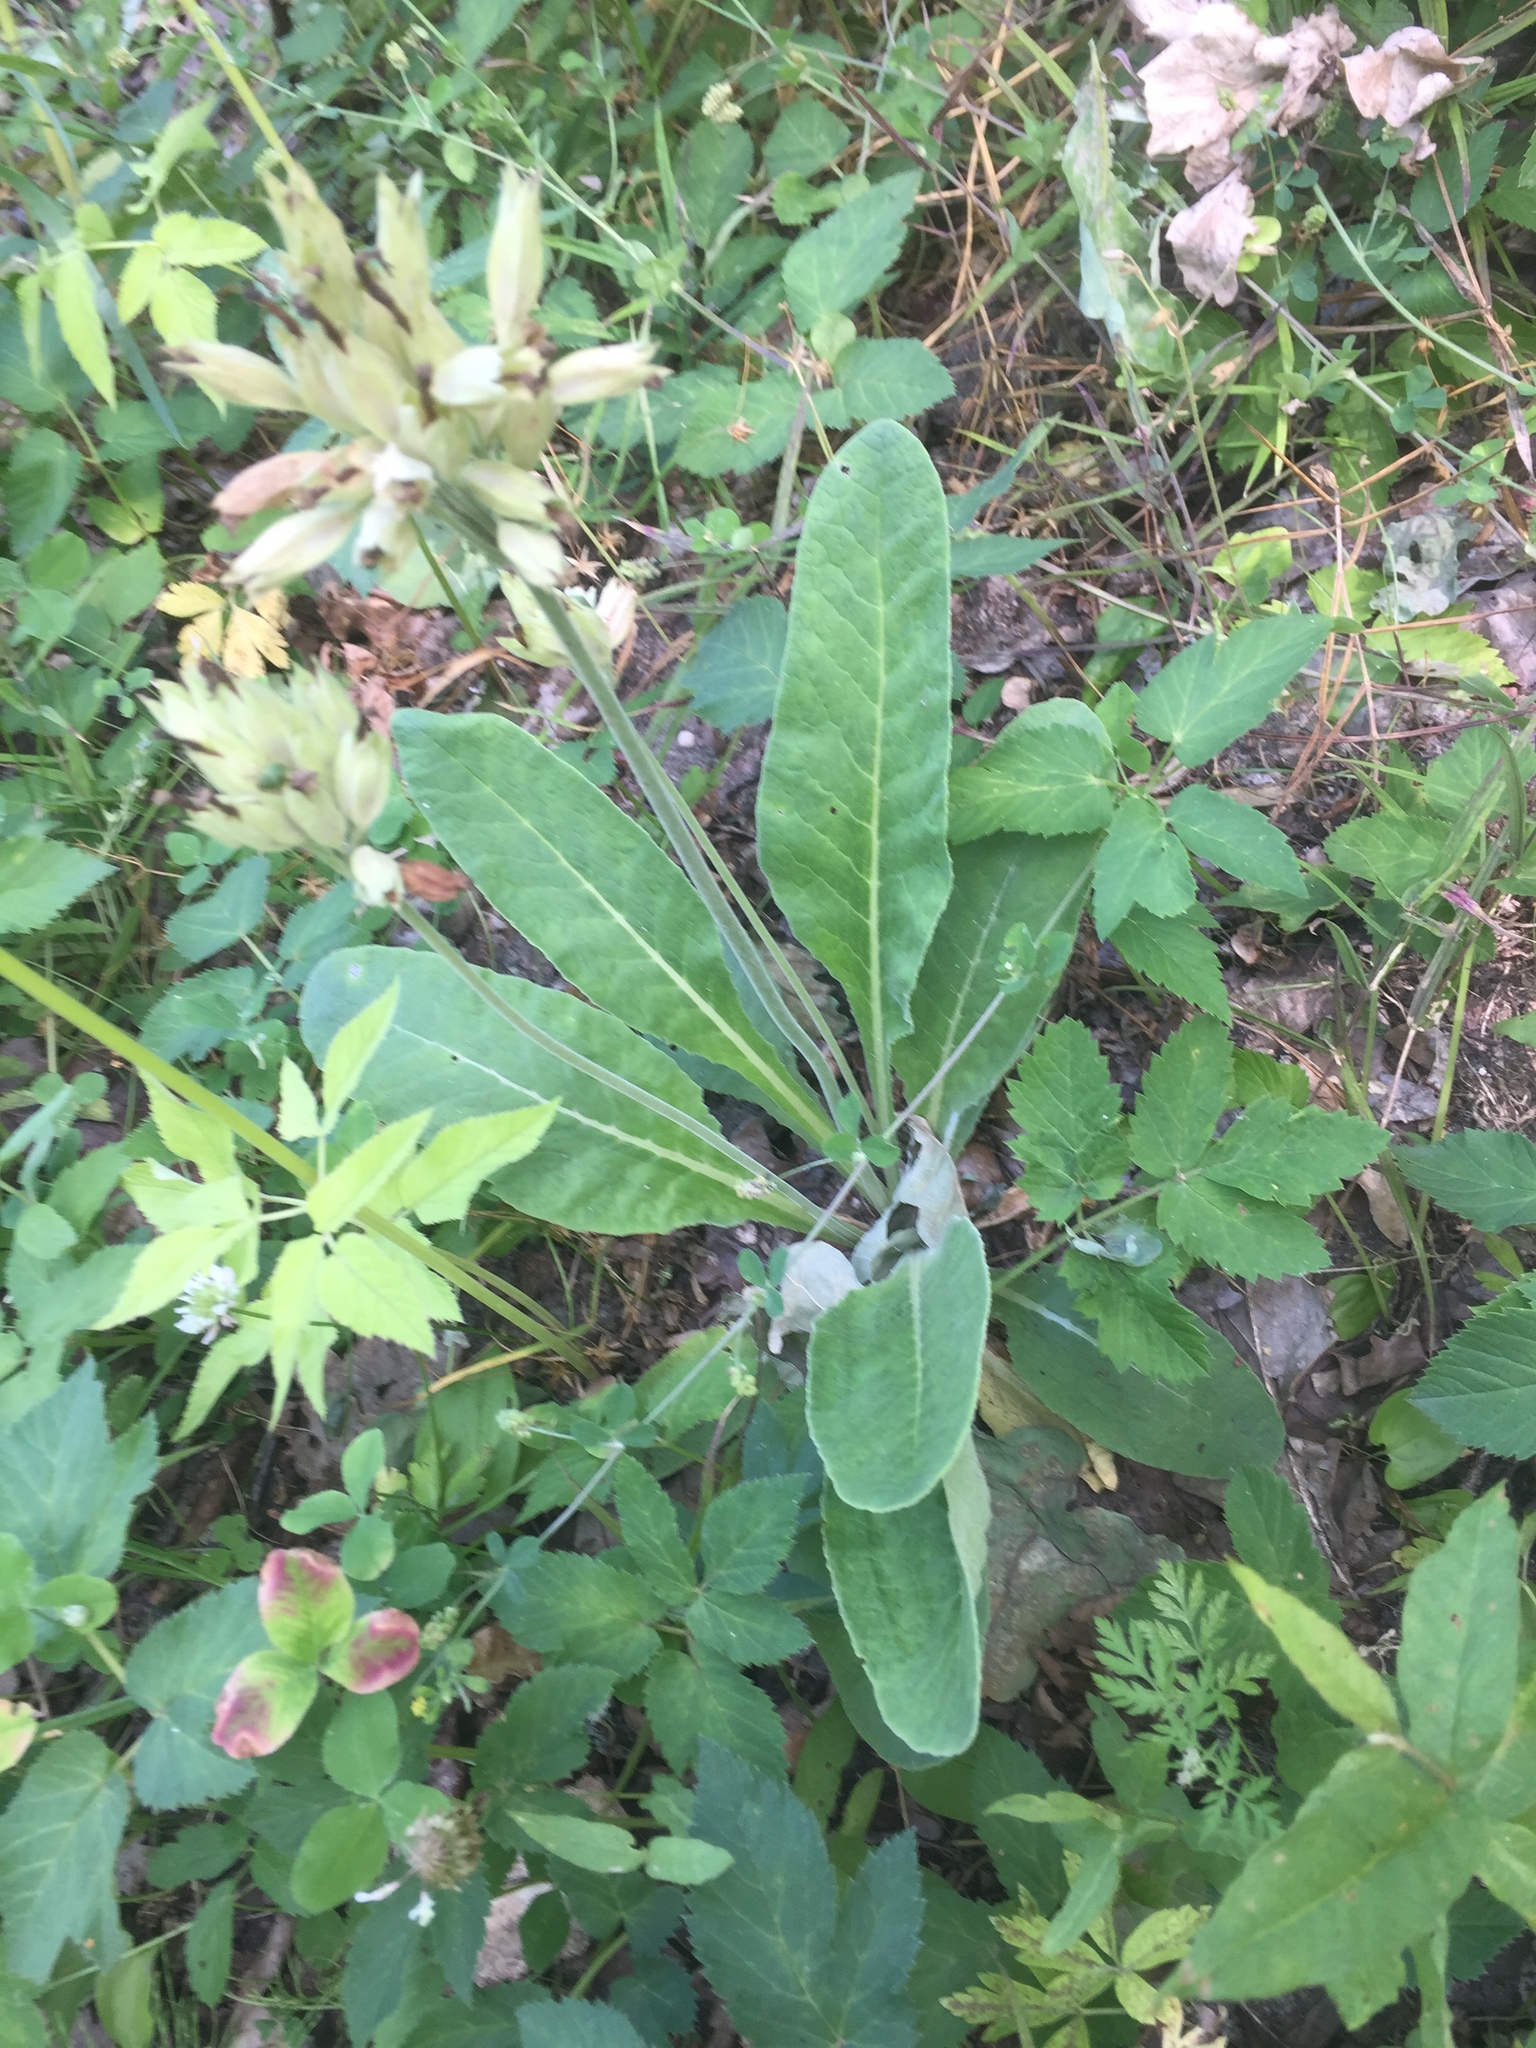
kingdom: Plantae
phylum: Tracheophyta
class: Magnoliopsida
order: Ericales
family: Primulaceae
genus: Primula
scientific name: Primula veris
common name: Cowslip
